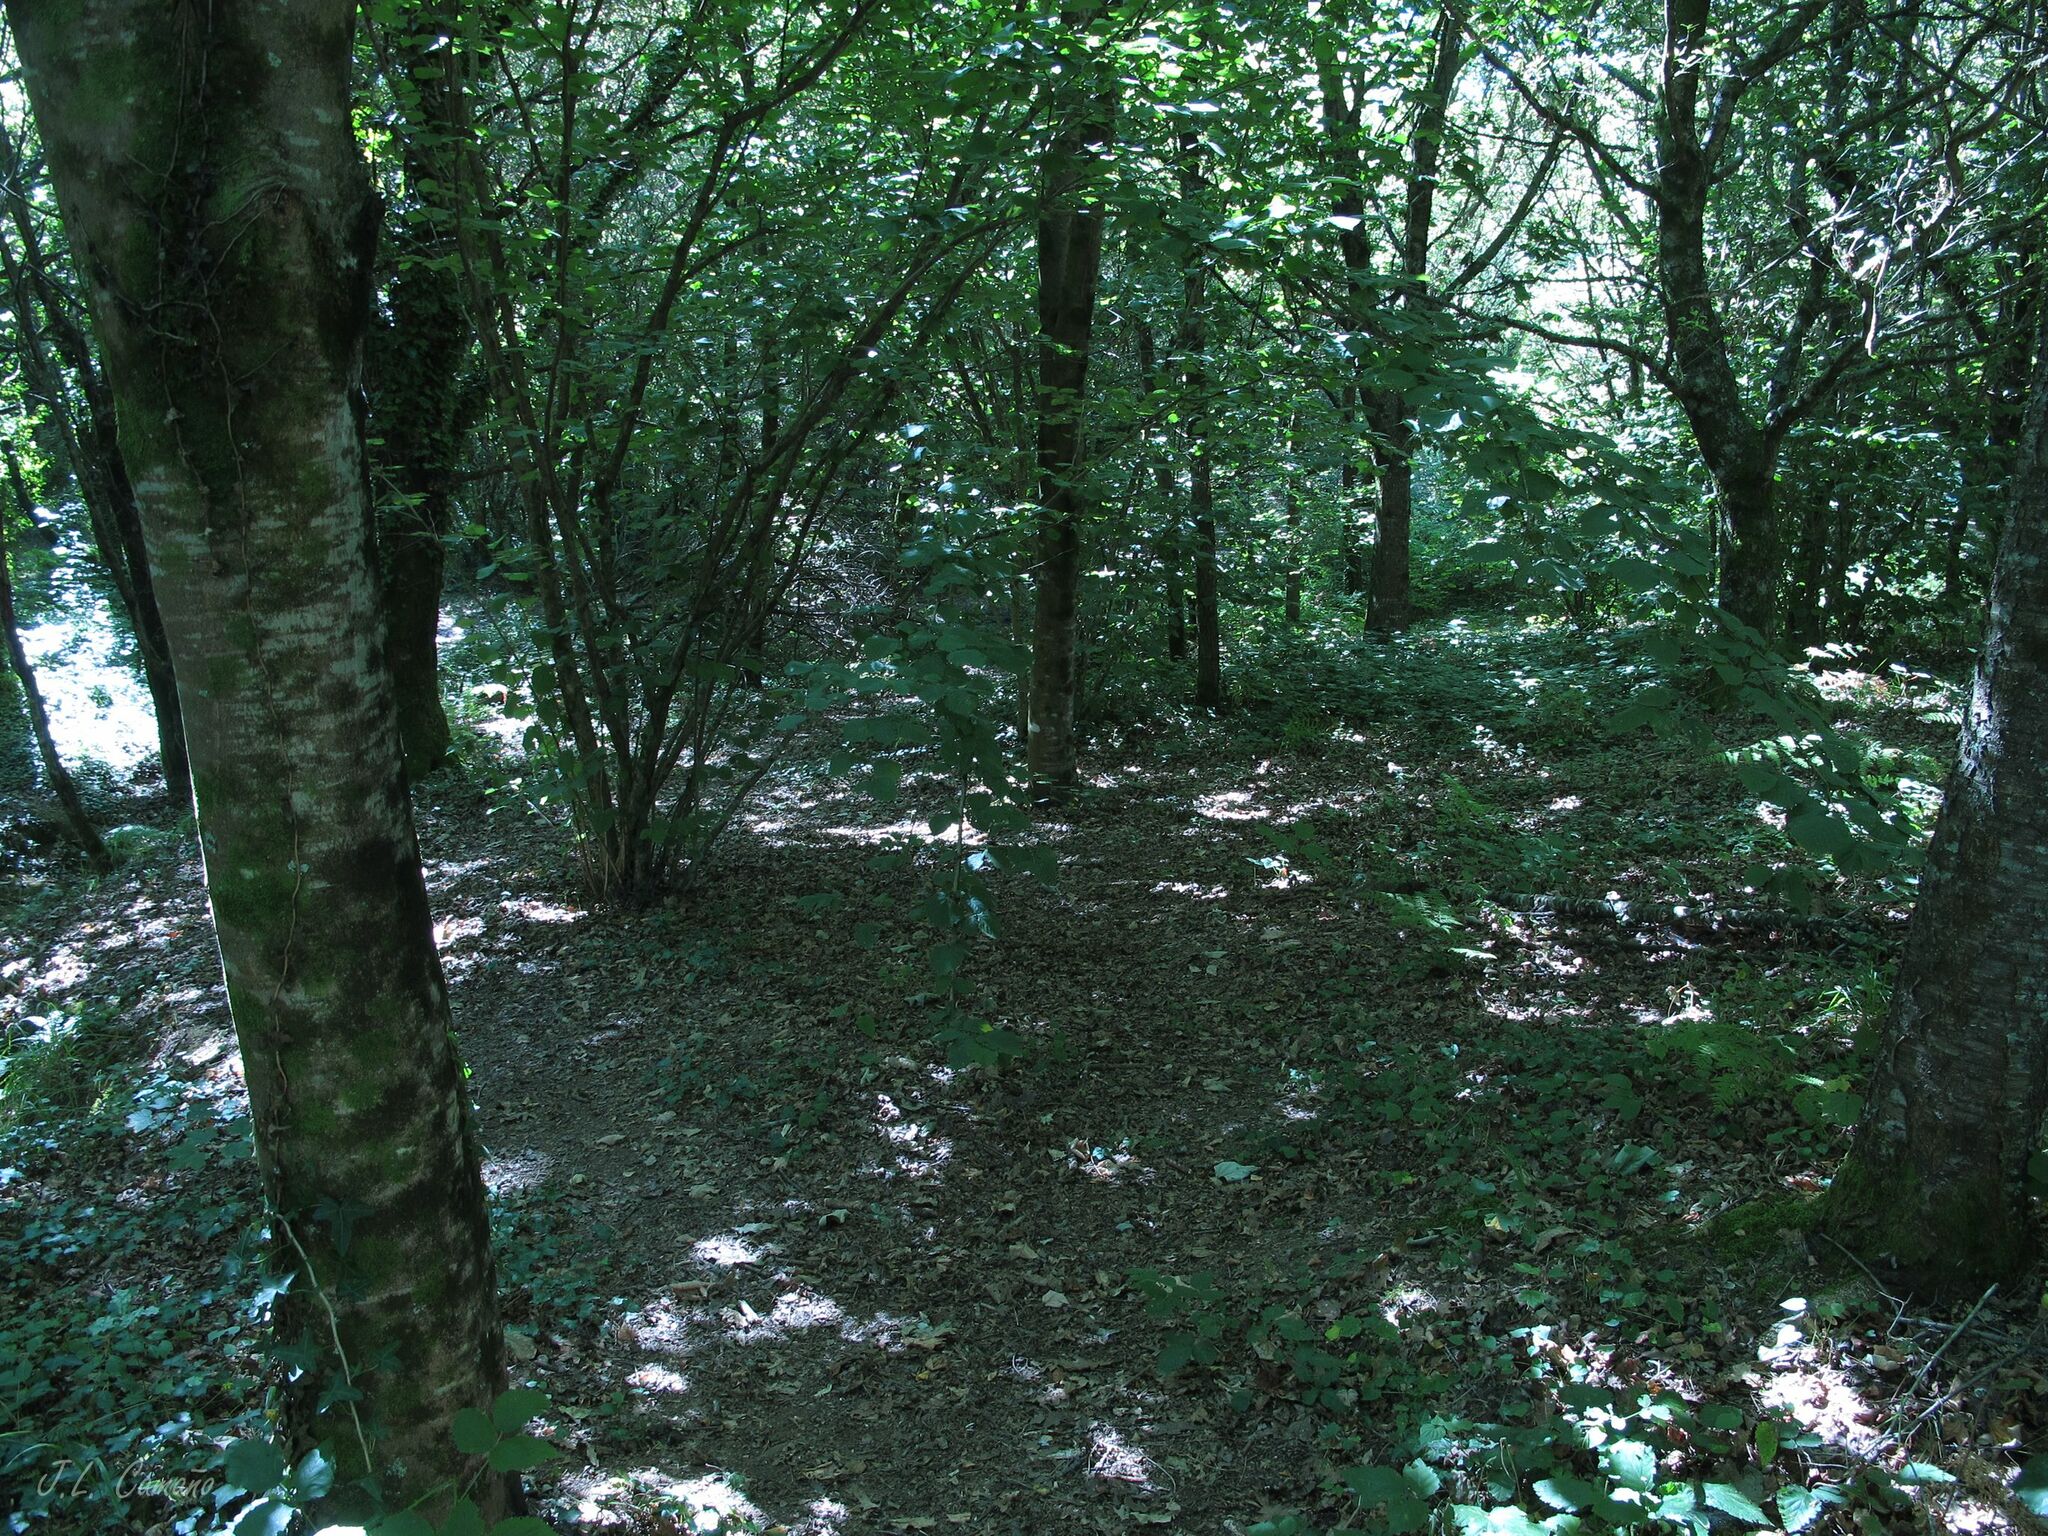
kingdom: Plantae
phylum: Marchantiophyta
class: Jungermanniopsida
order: Metzgeriales
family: Metzgeriaceae
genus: Metzgeria
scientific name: Metzgeria furcata
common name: Forked veilwort
